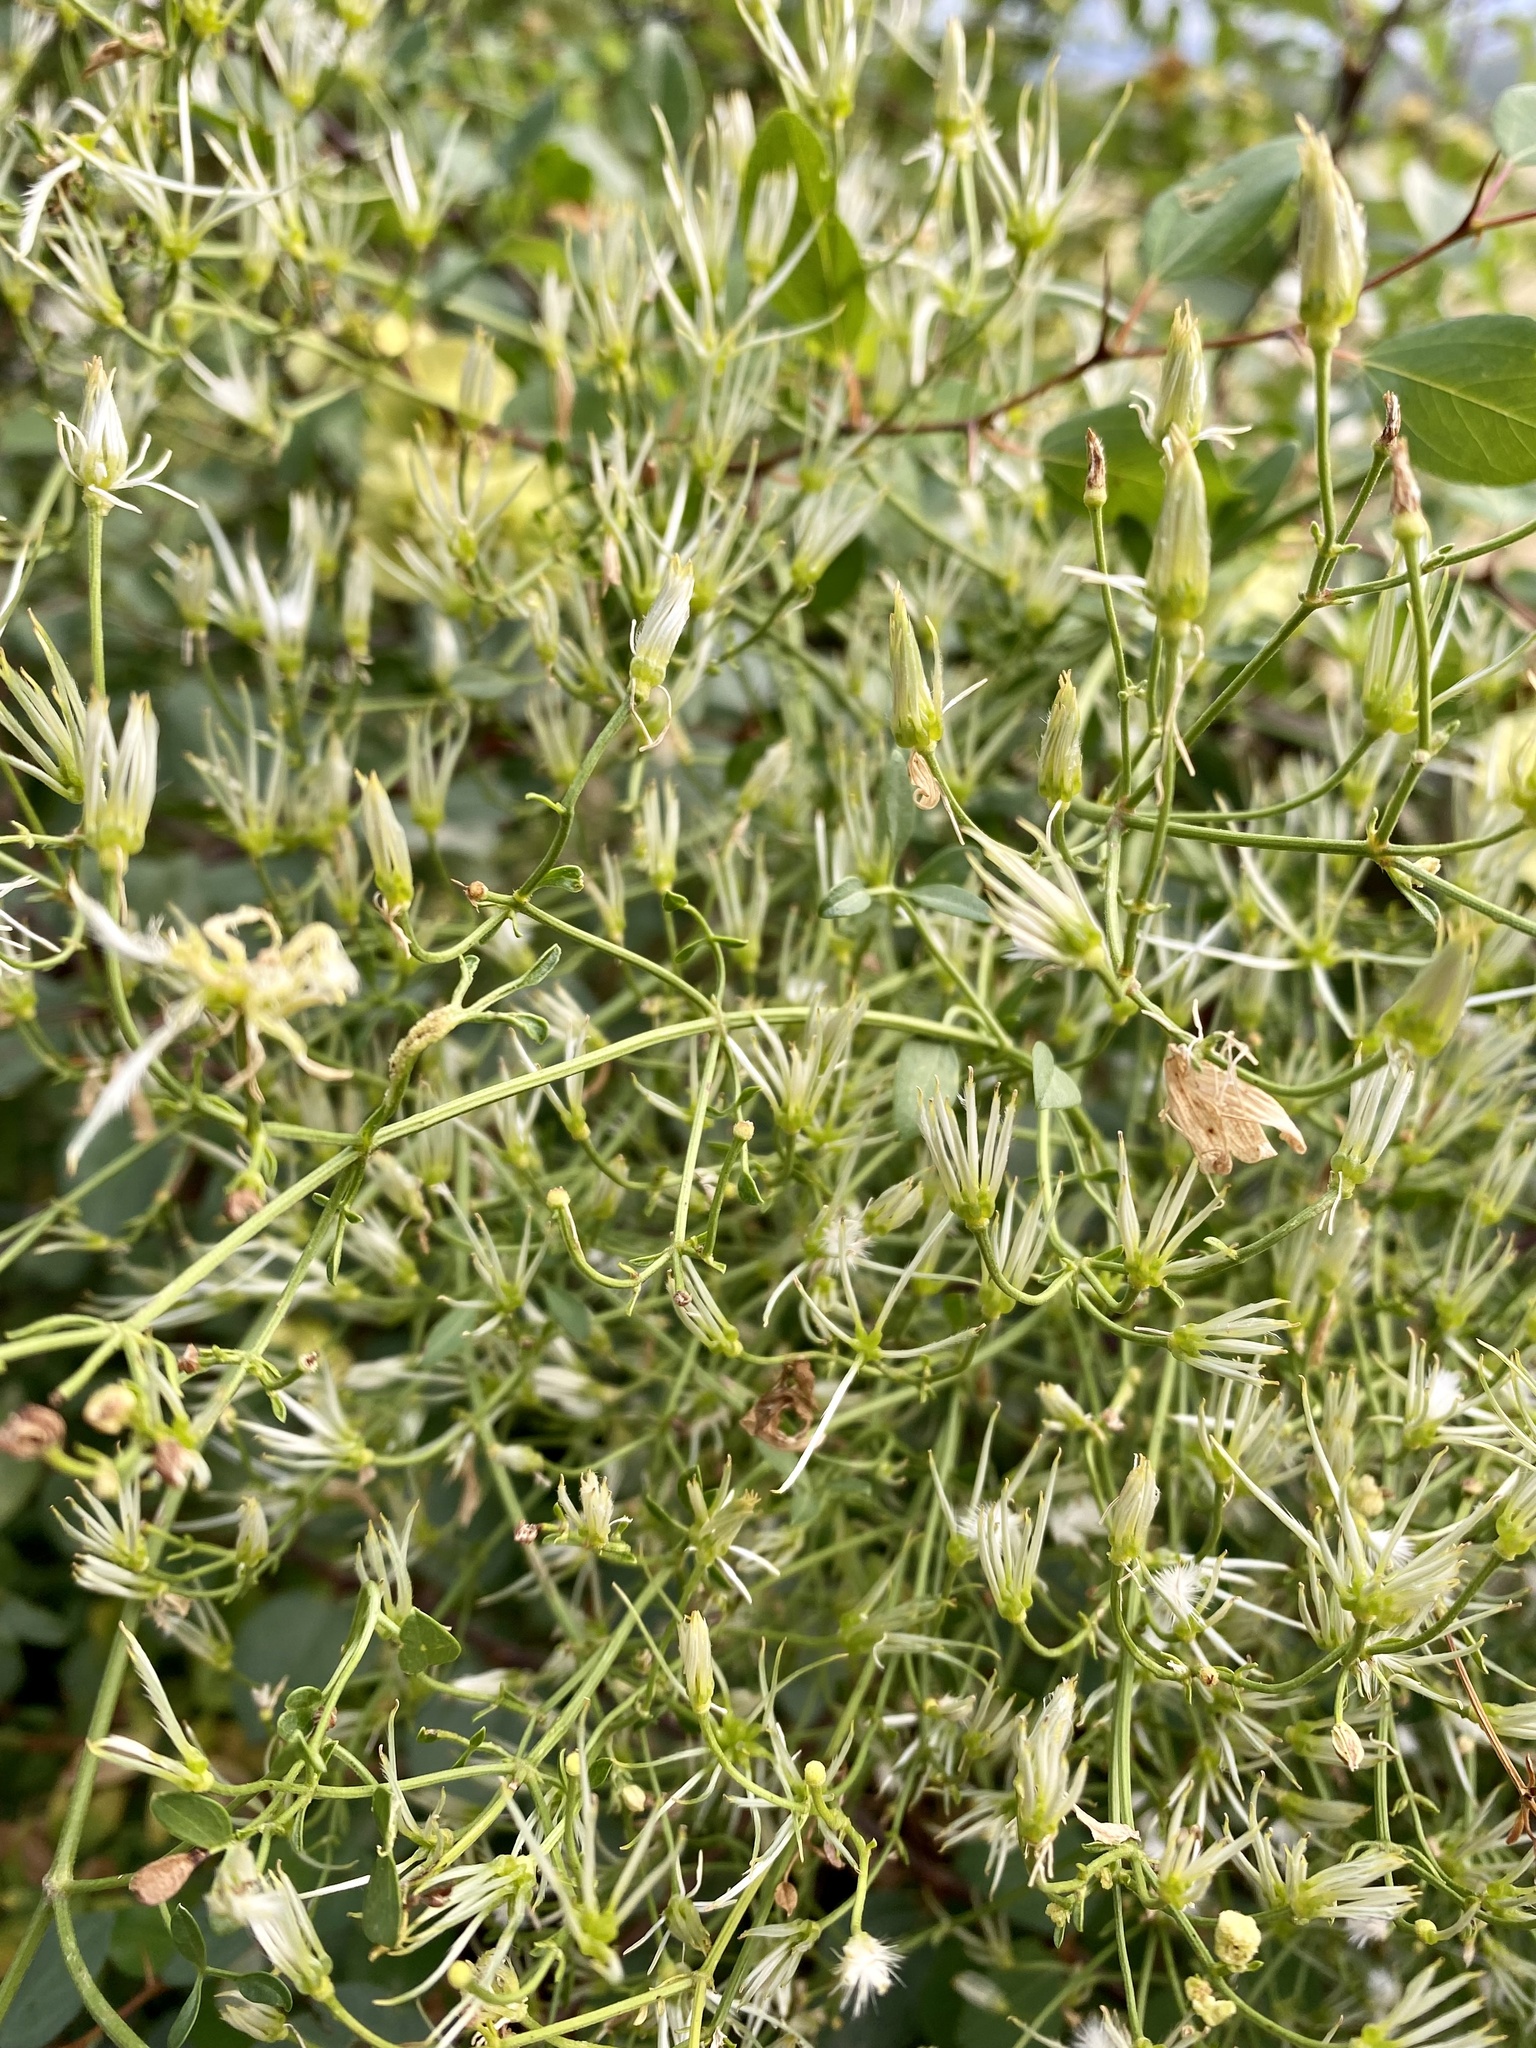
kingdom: Plantae
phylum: Tracheophyta
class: Magnoliopsida
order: Ranunculales
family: Ranunculaceae
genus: Clematis
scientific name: Clematis flammula
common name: Virgin's-bower
